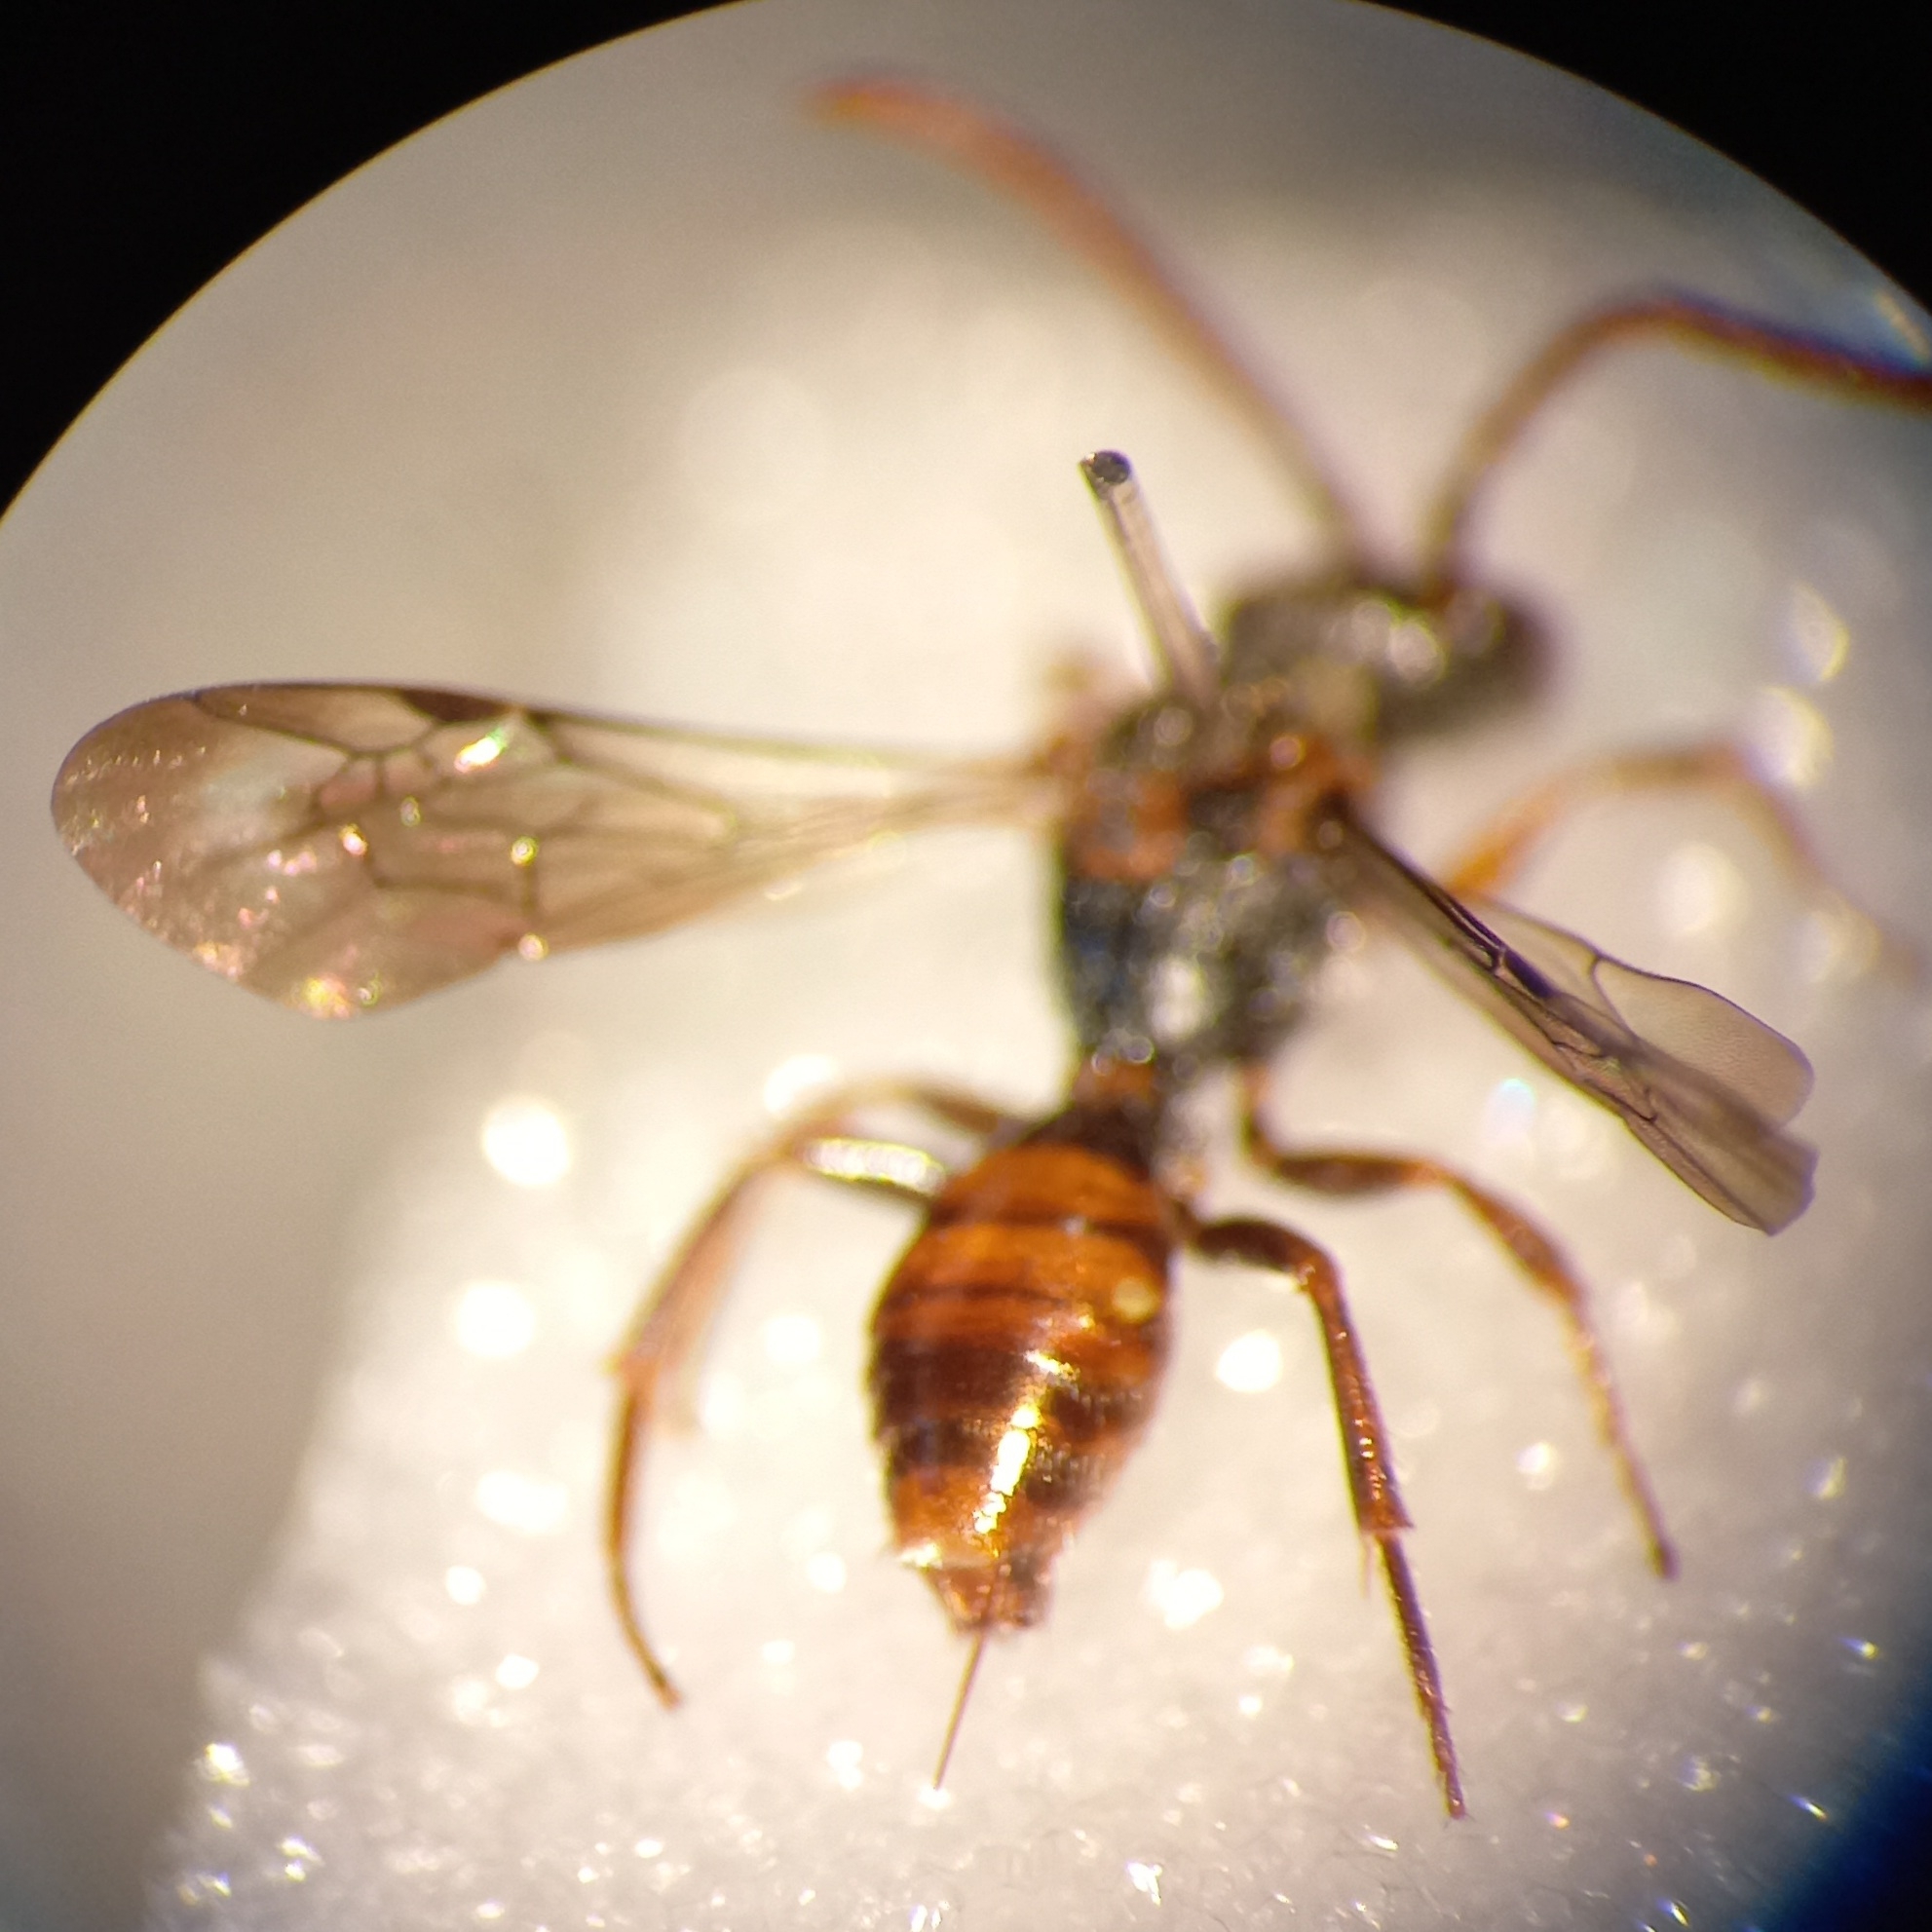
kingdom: Animalia
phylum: Arthropoda
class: Insecta
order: Hymenoptera
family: Apidae
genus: Nomada
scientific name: Nomada flavoguttata
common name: Little nomad bee
